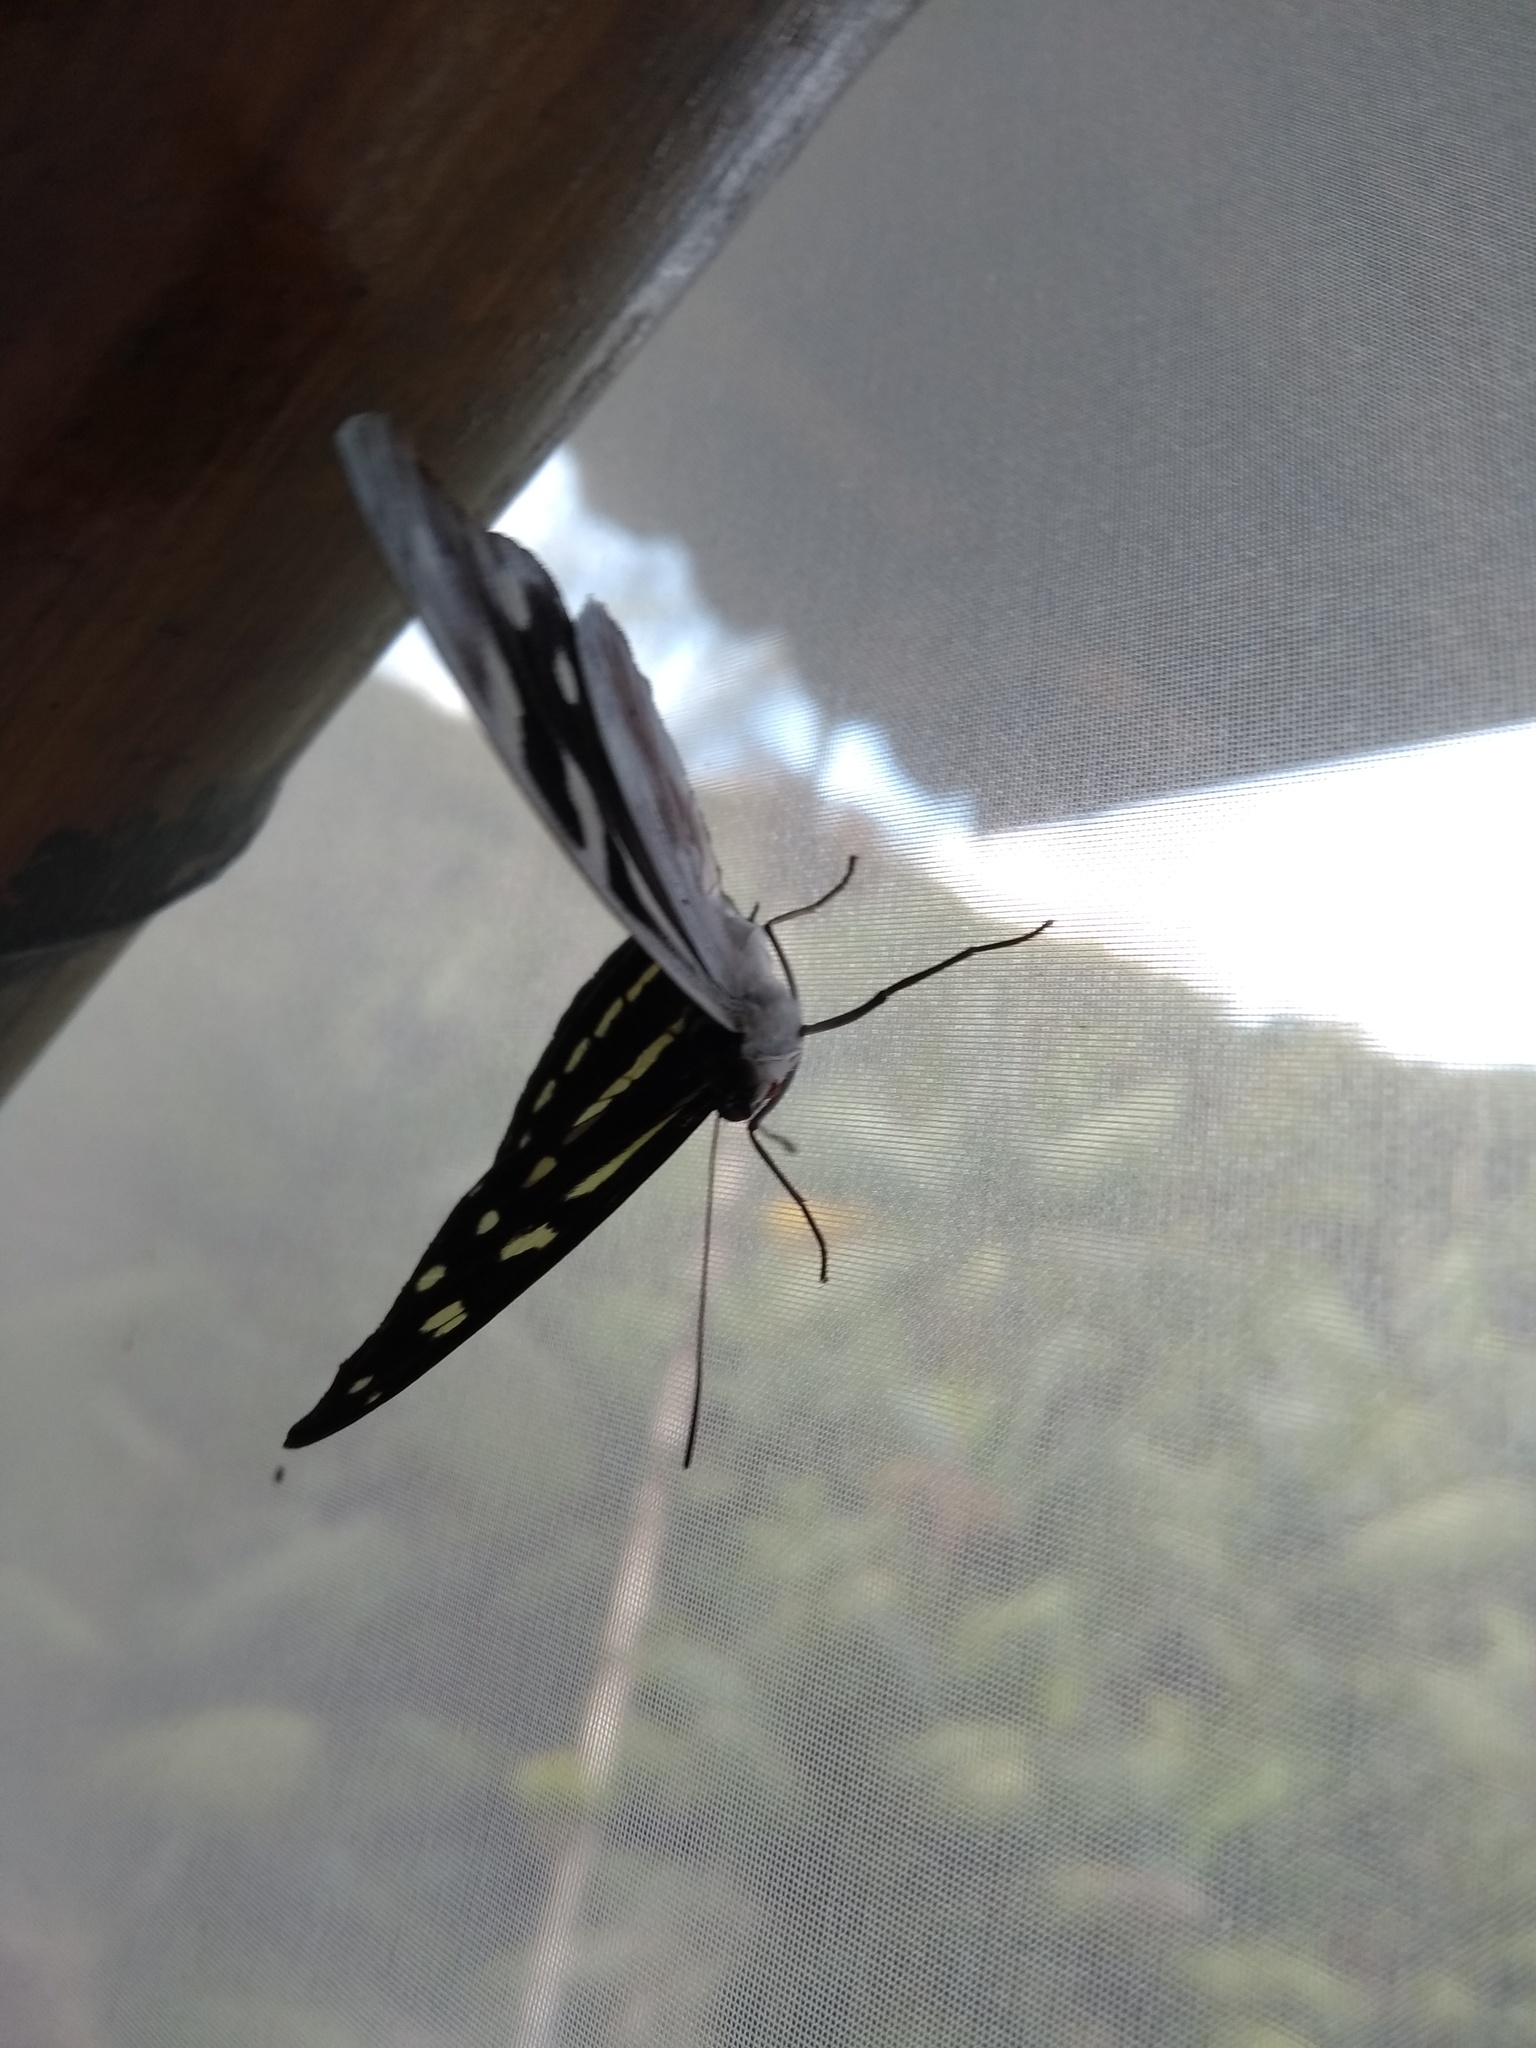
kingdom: Animalia
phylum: Arthropoda
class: Insecta
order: Lepidoptera
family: Nymphalidae
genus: Catonephele
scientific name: Catonephele acontius
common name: Unspotted firewing
